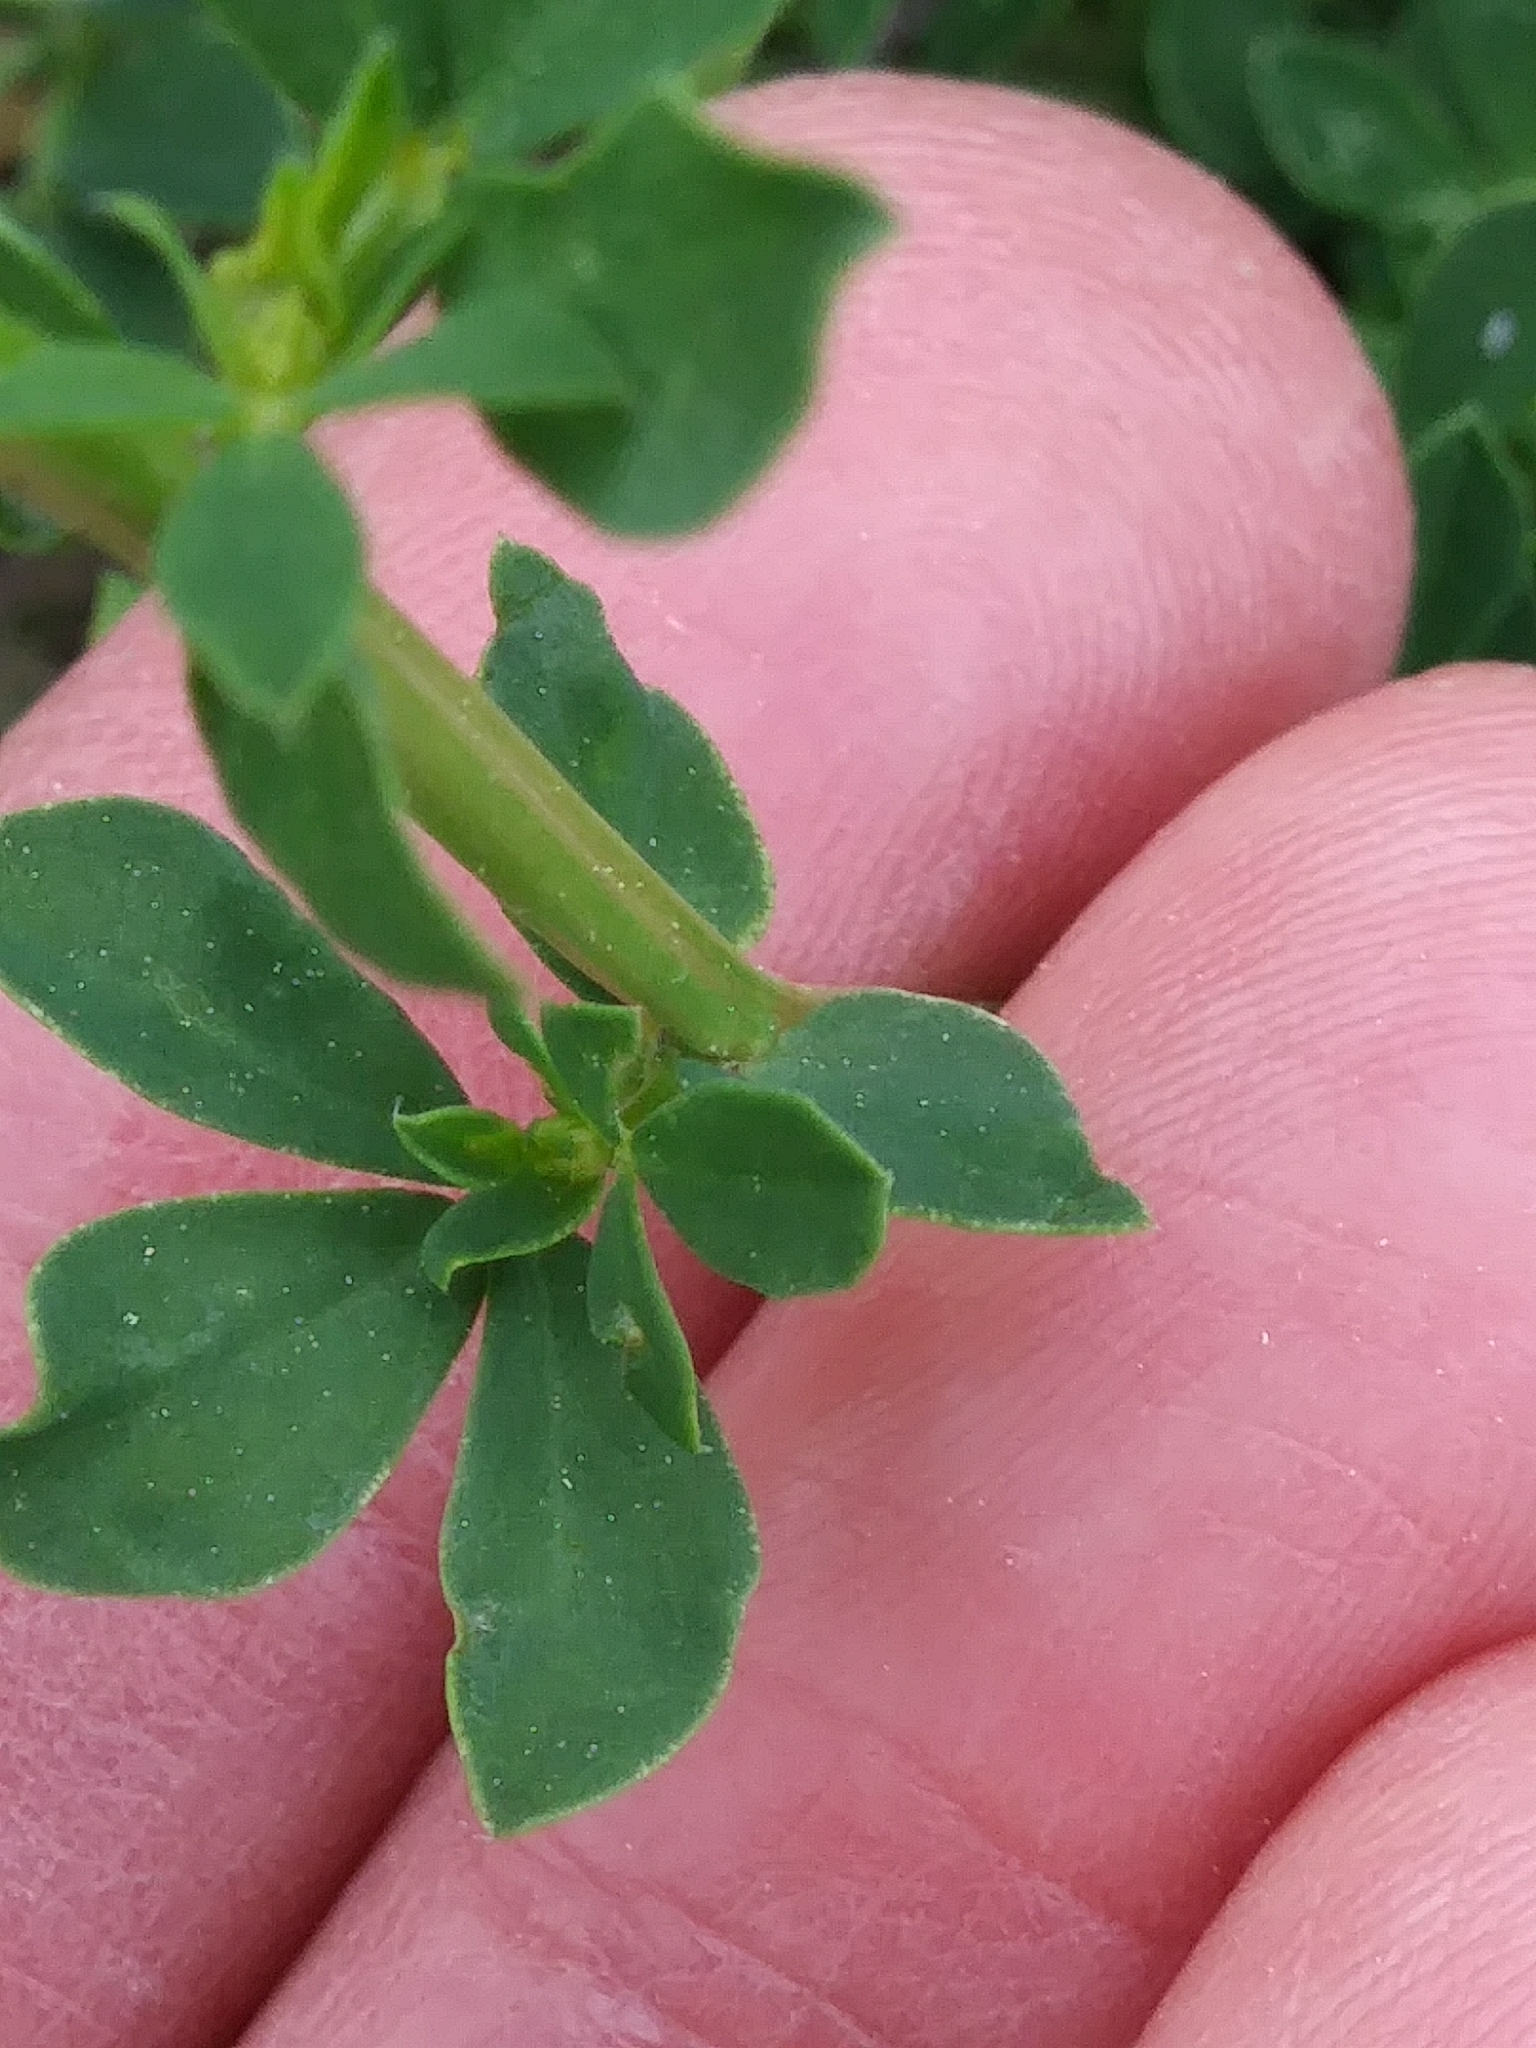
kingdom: Plantae
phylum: Tracheophyta
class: Magnoliopsida
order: Fabales
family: Fabaceae
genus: Lotus
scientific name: Lotus corniculatus
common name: Common bird's-foot-trefoil
